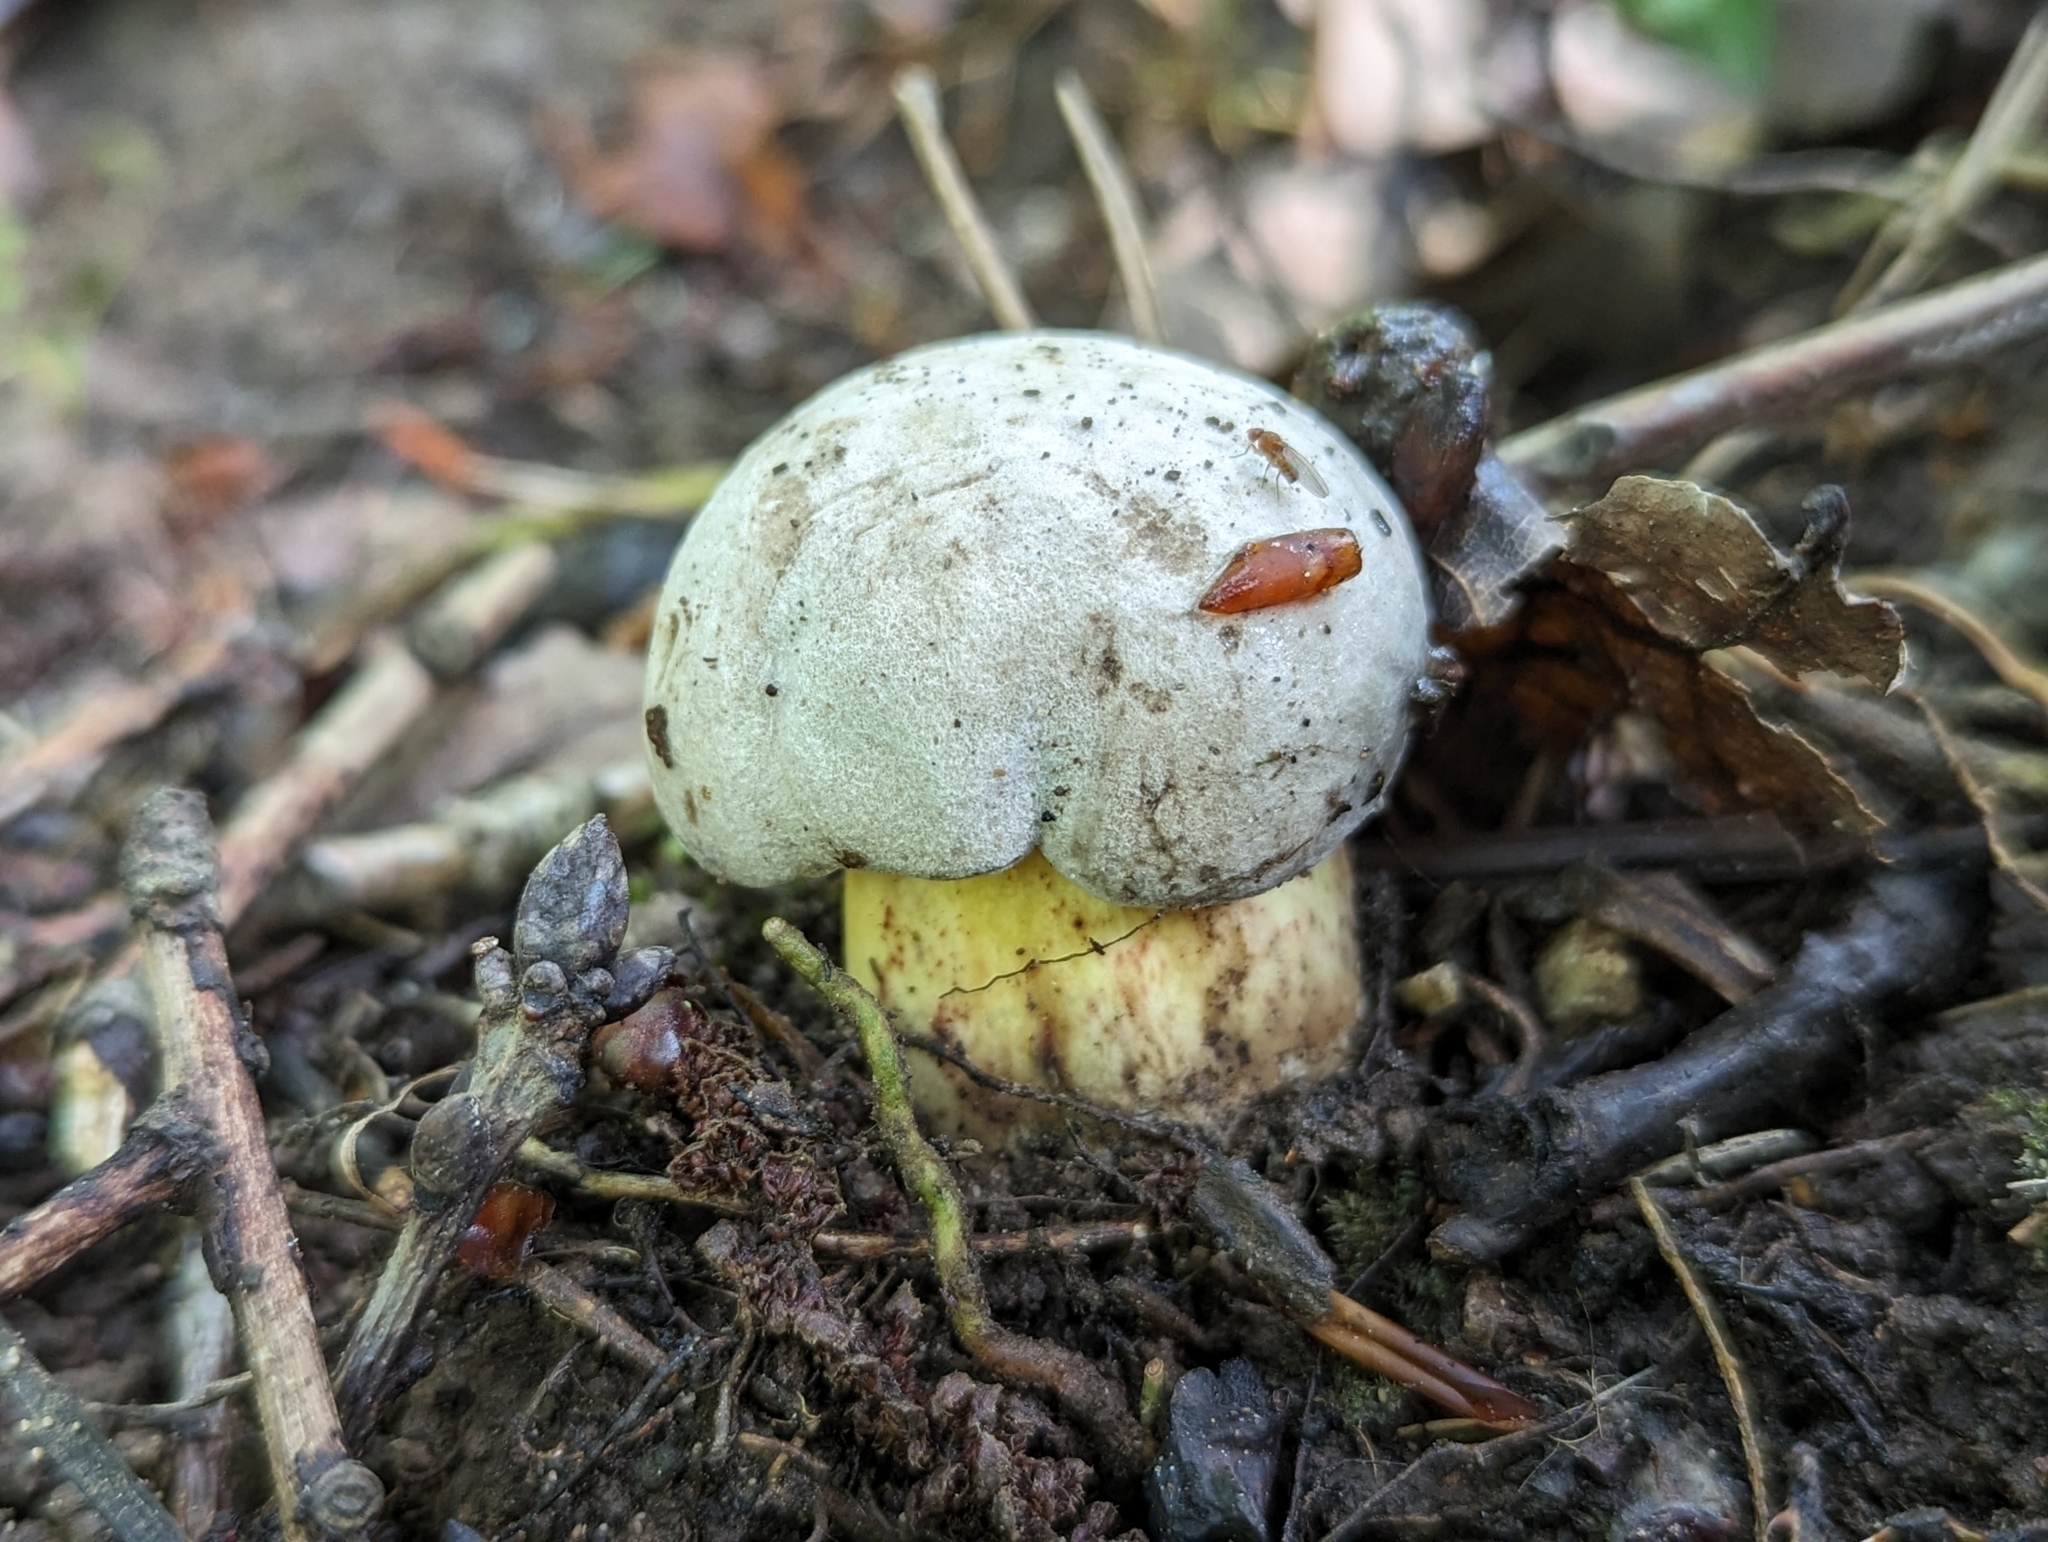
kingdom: Fungi
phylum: Basidiomycota
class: Agaricomycetes
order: Boletales
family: Boletaceae
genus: Caloboletus
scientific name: Caloboletus radicans
